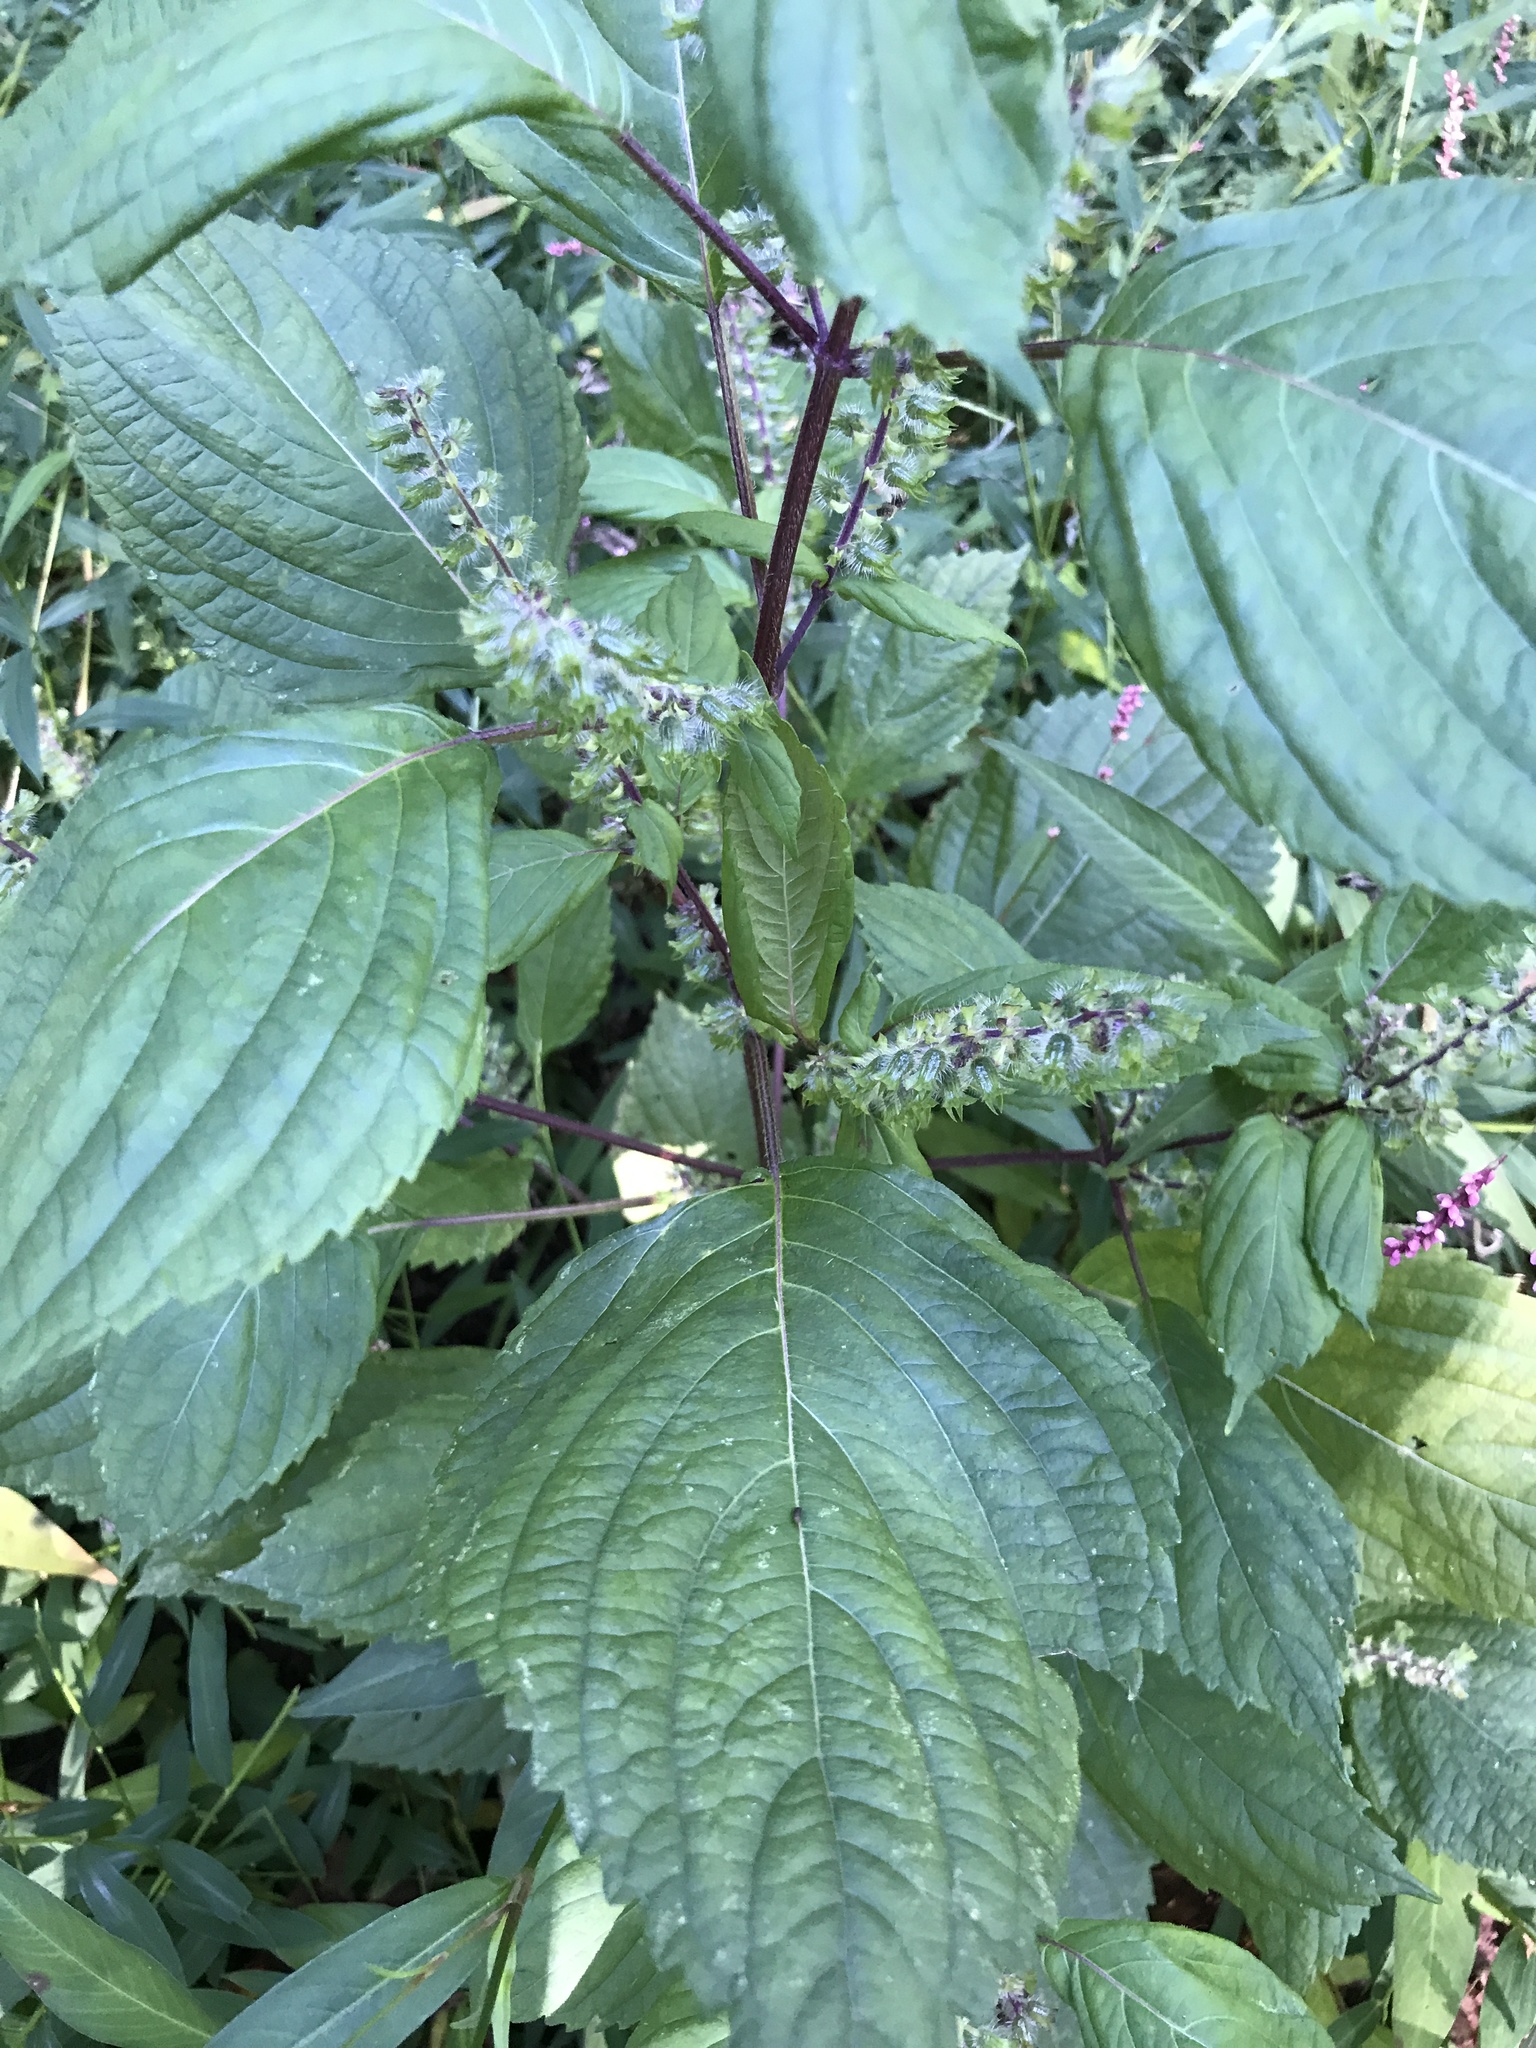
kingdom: Plantae
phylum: Tracheophyta
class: Magnoliopsida
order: Lamiales
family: Lamiaceae
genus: Perilla
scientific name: Perilla frutescens
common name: Perilla
